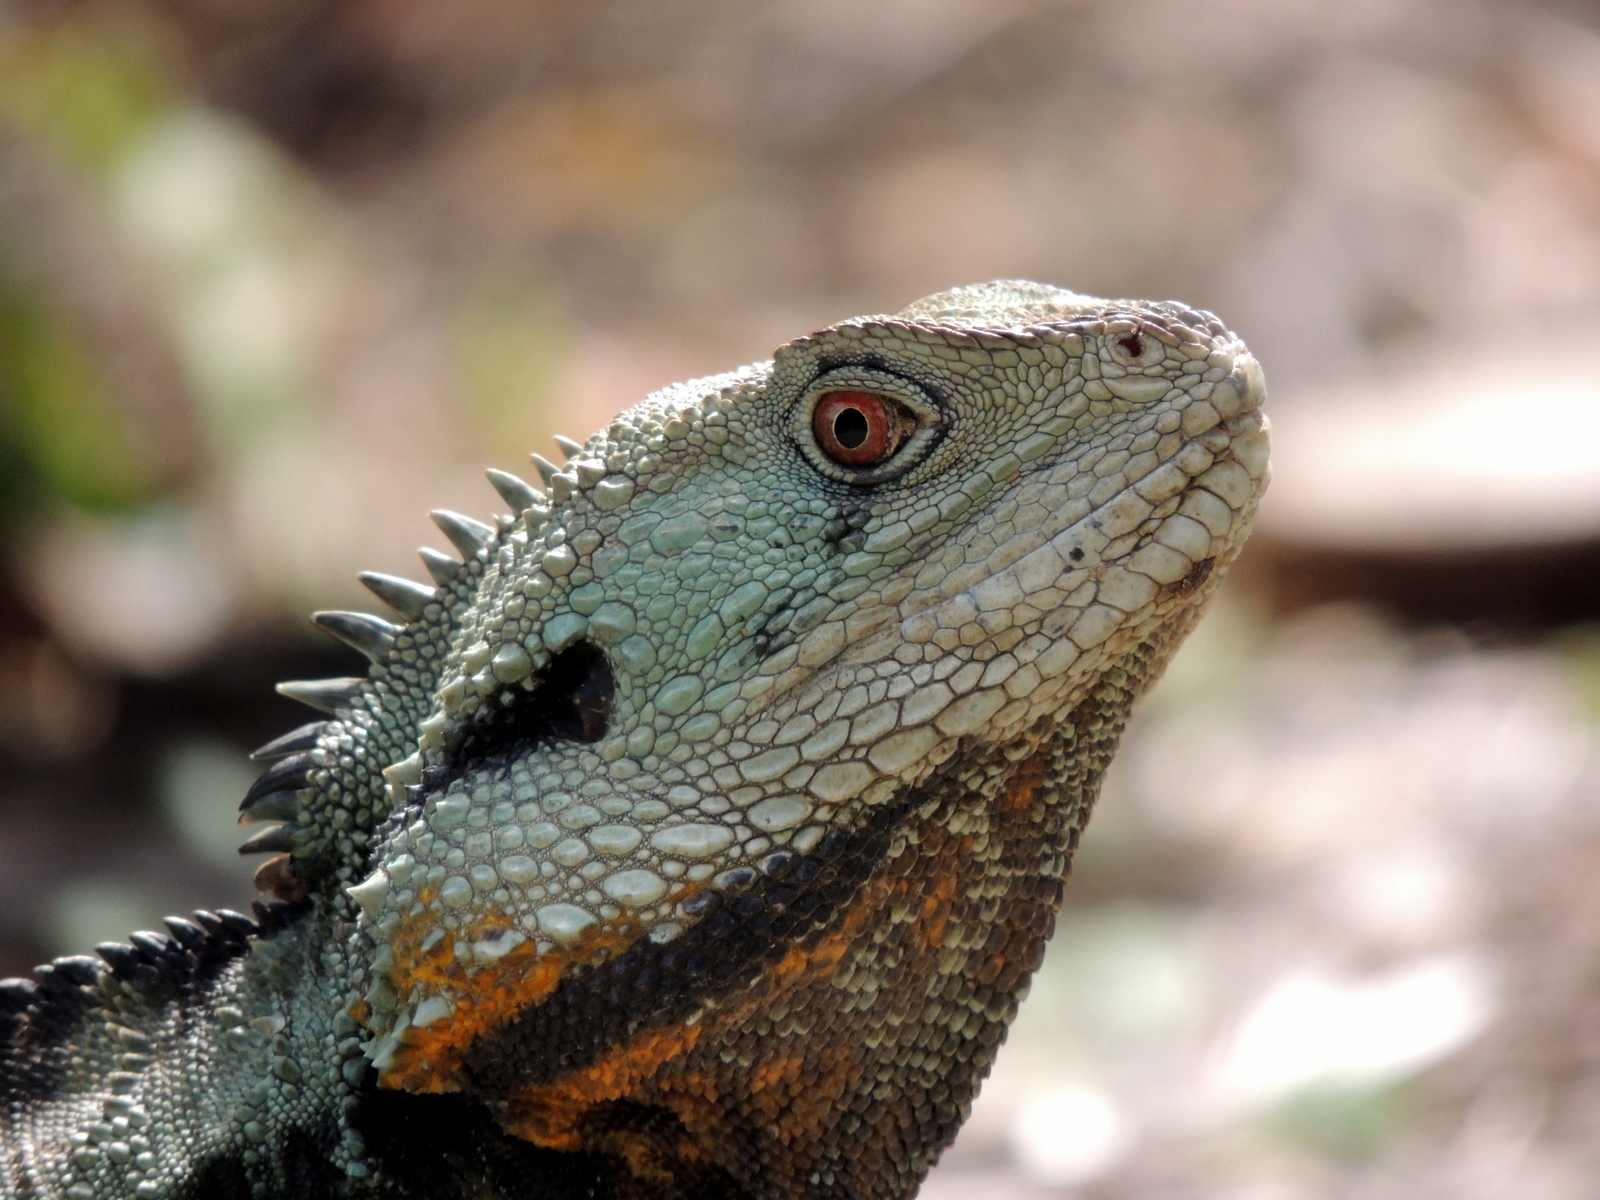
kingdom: Animalia
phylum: Chordata
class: Squamata
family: Agamidae
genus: Intellagama
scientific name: Intellagama lesueurii
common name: Eastern water dragon
